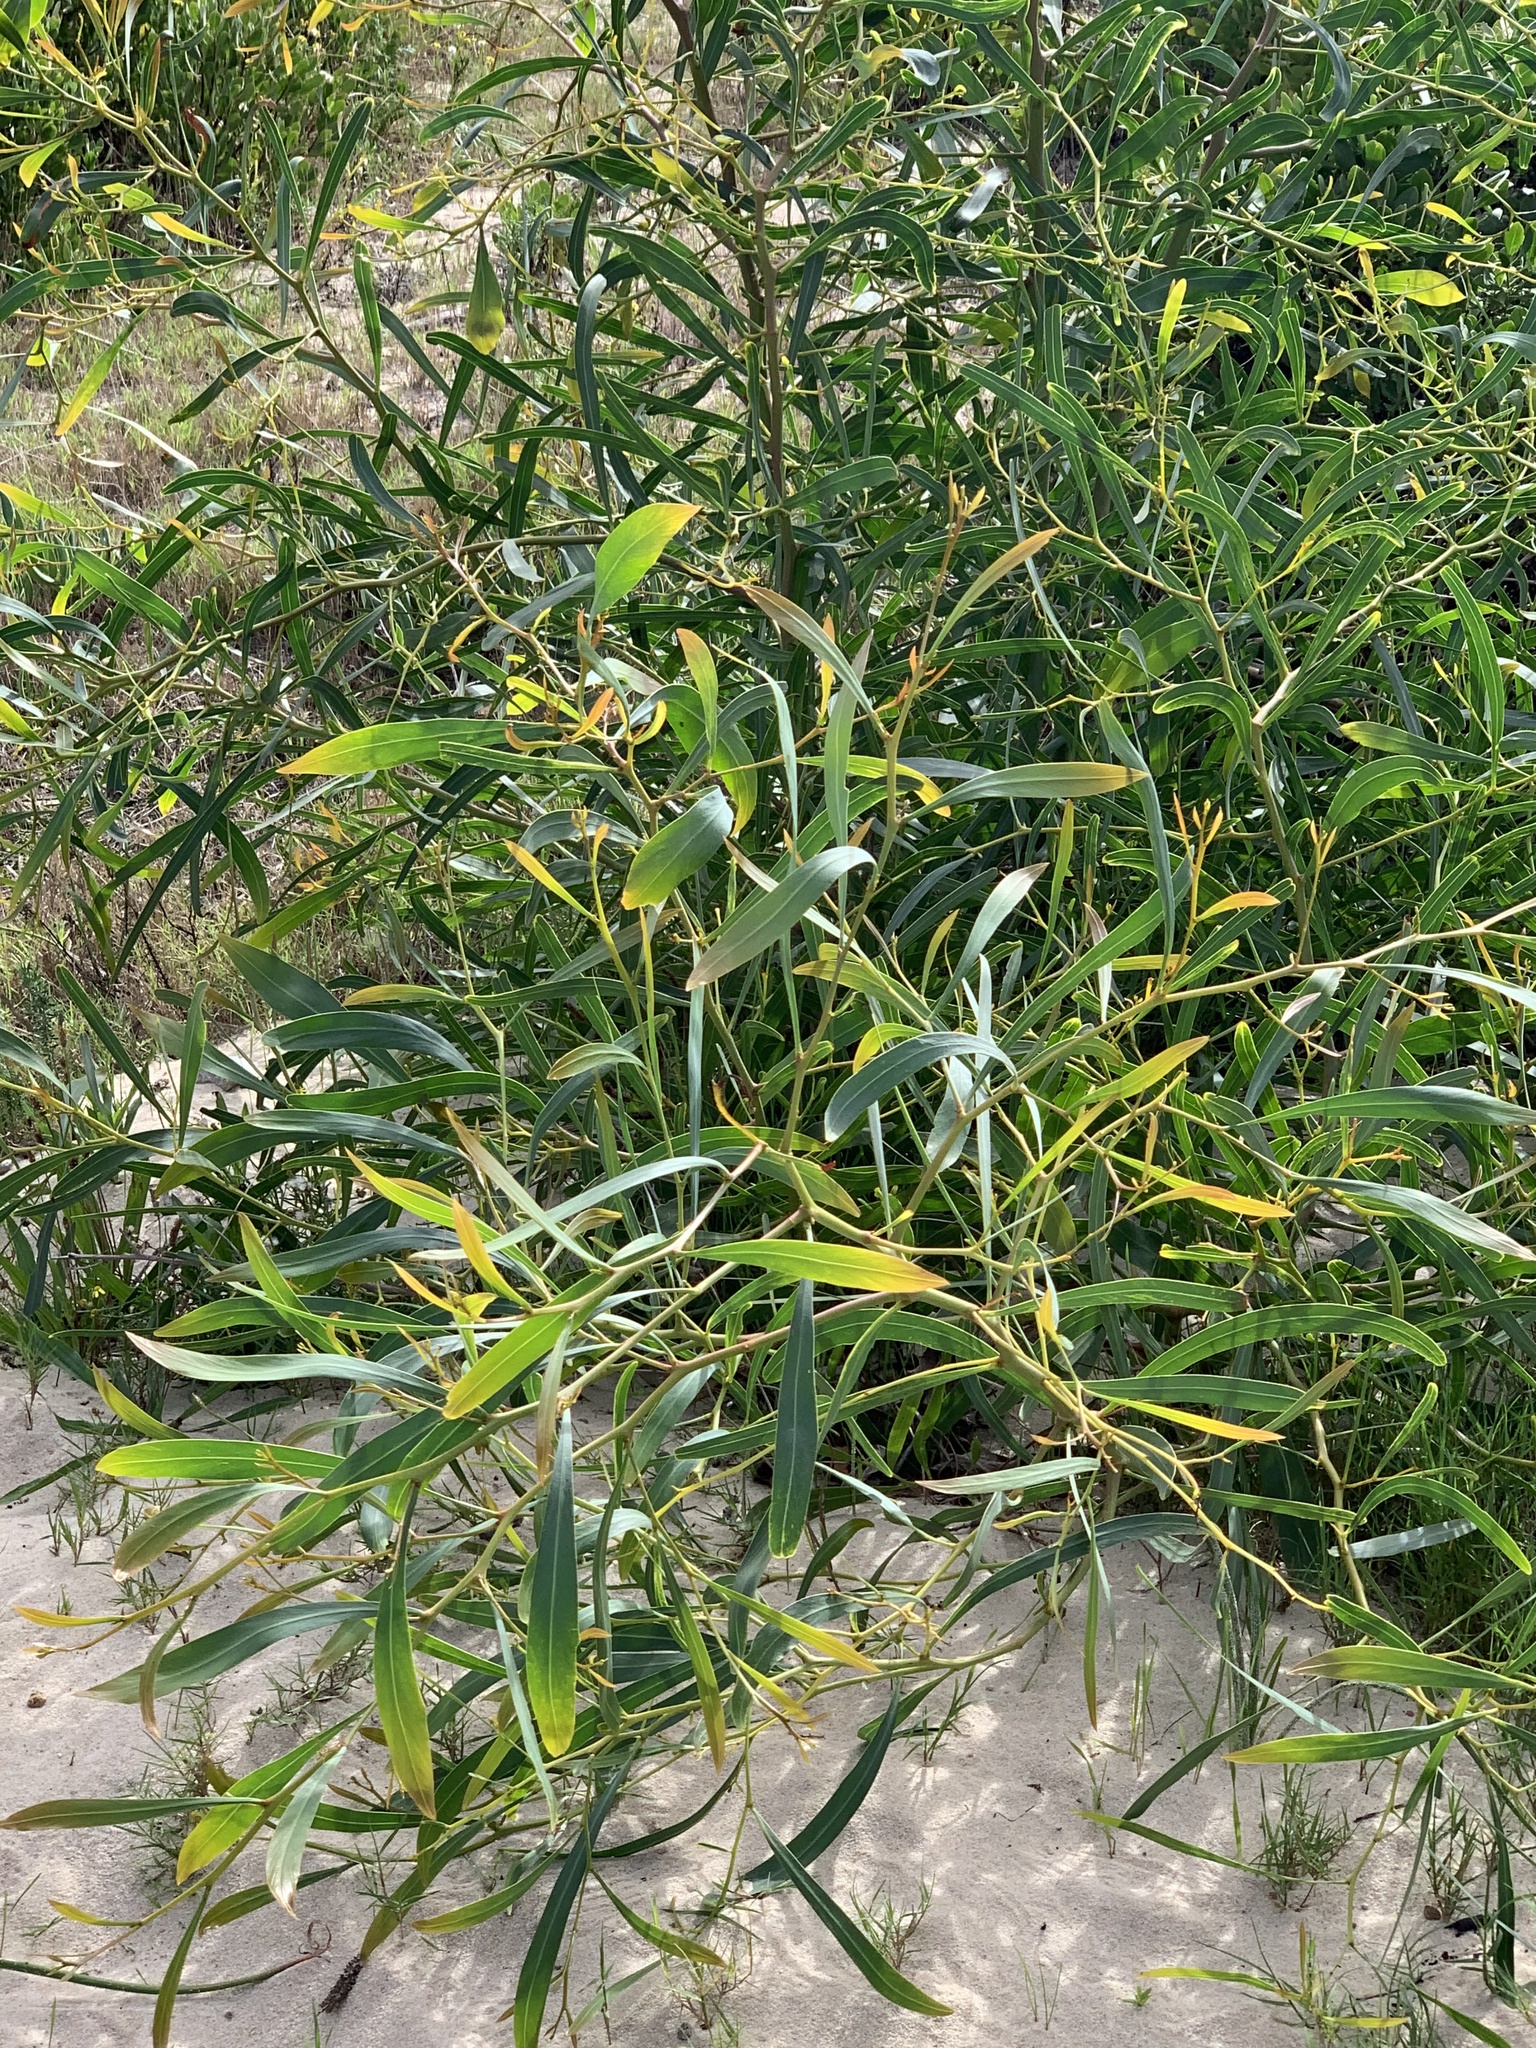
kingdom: Plantae
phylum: Tracheophyta
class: Magnoliopsida
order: Fabales
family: Fabaceae
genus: Acacia
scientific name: Acacia saligna
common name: Orange wattle
